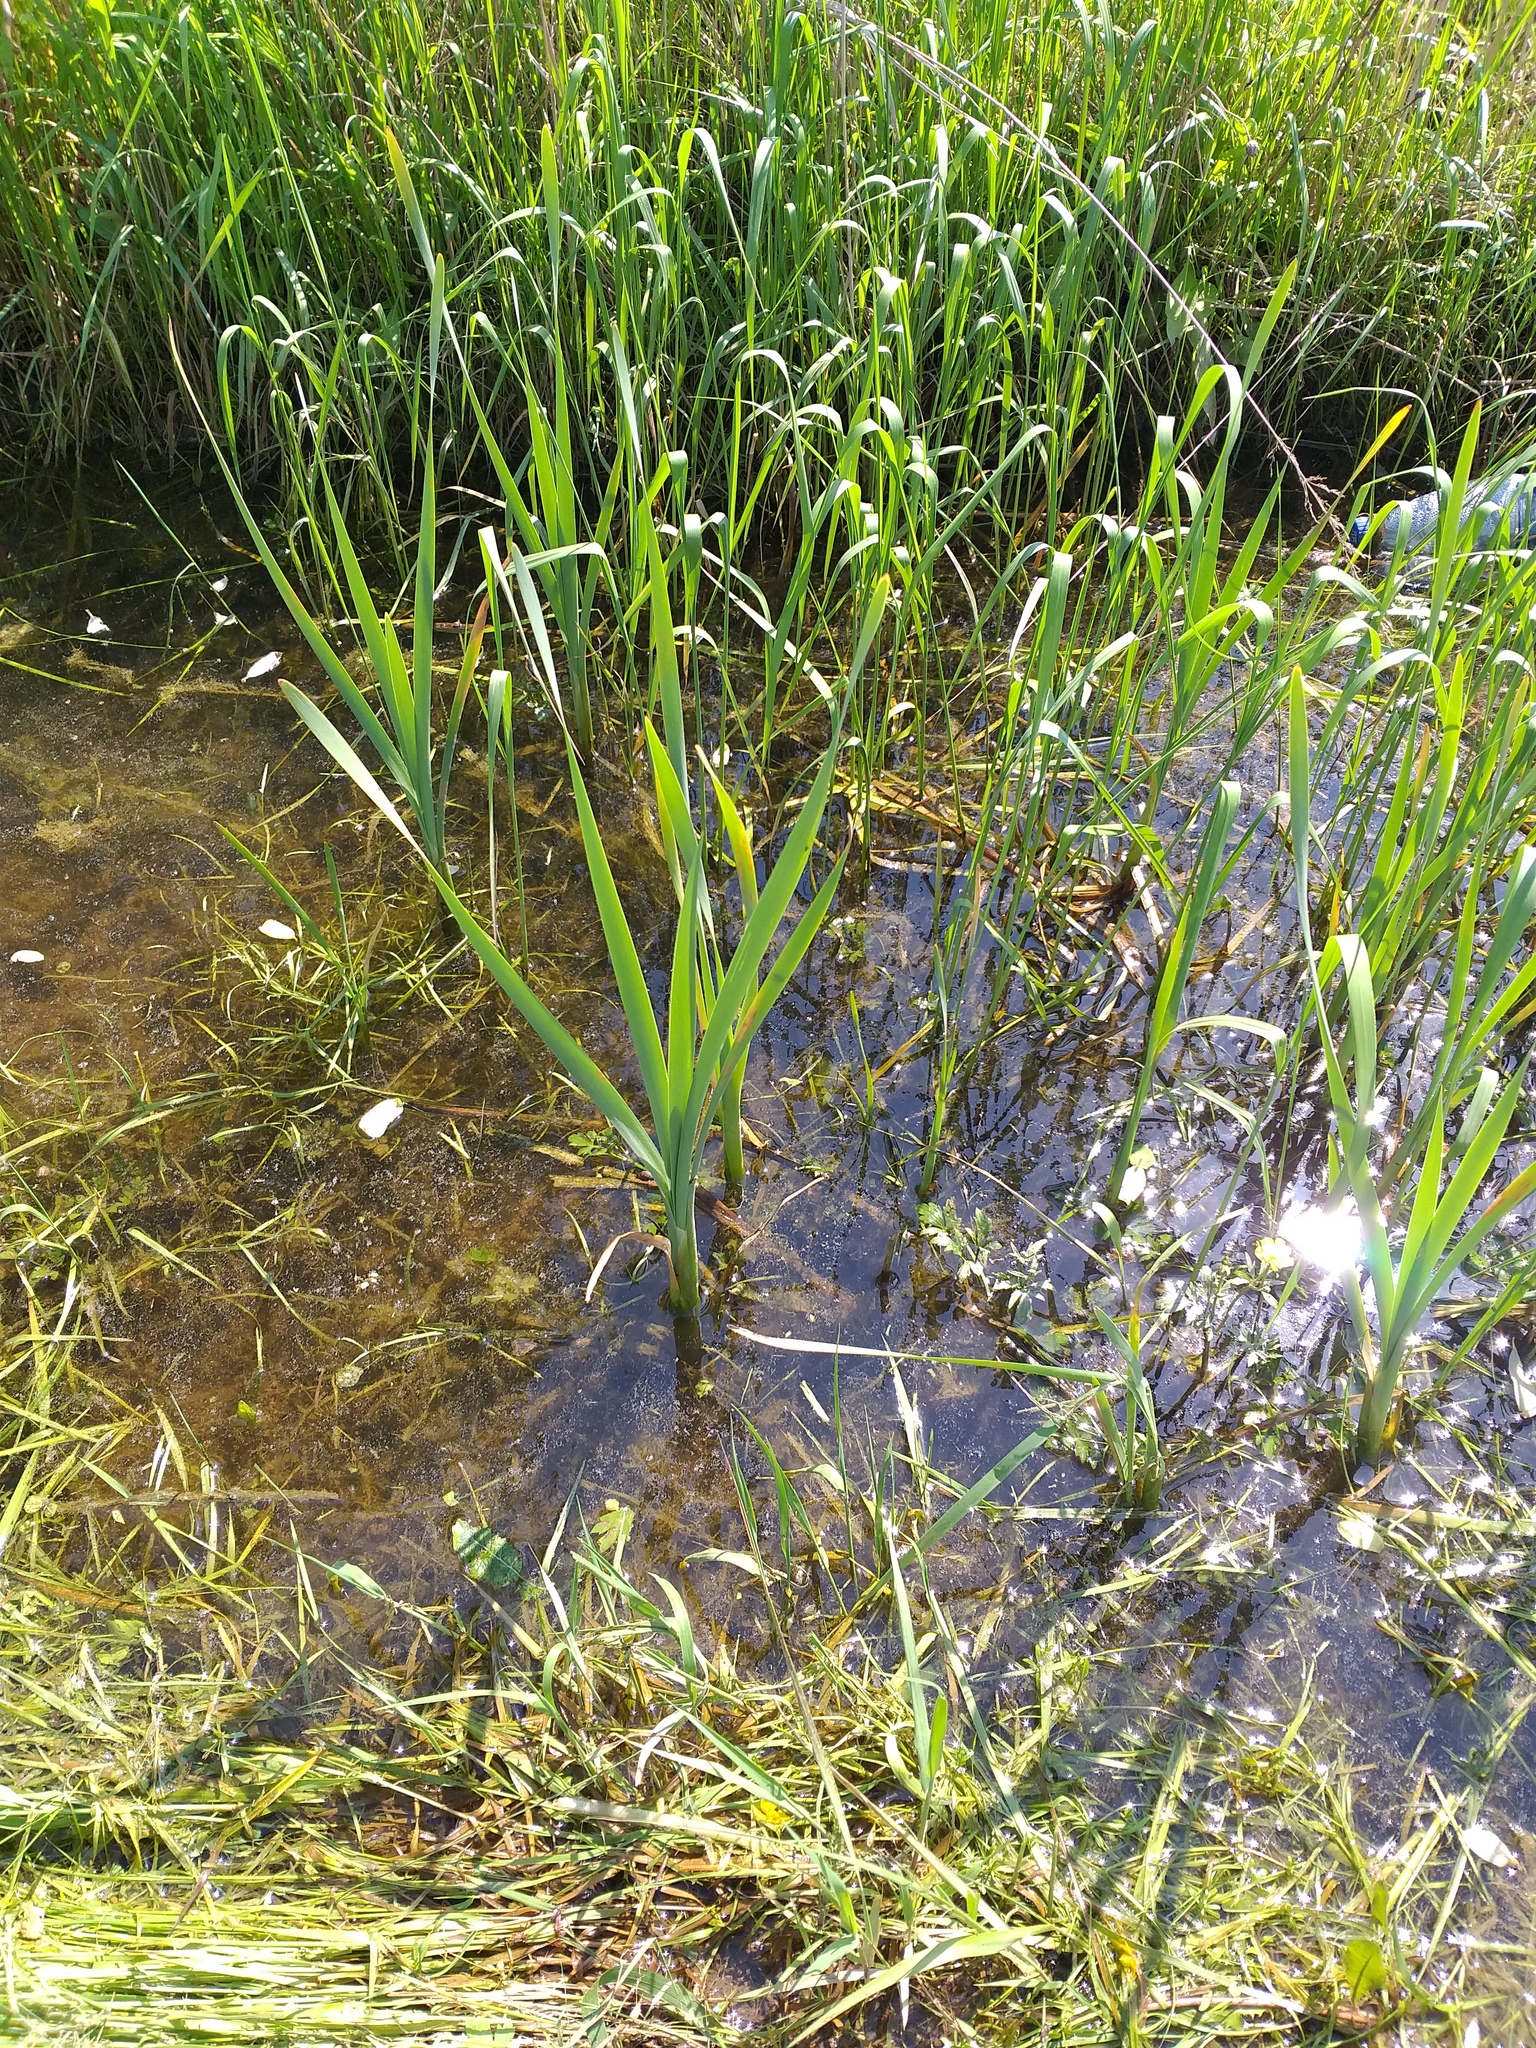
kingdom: Plantae
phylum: Tracheophyta
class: Liliopsida
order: Poales
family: Typhaceae
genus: Typha
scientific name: Typha latifolia
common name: Broadleaf cattail
